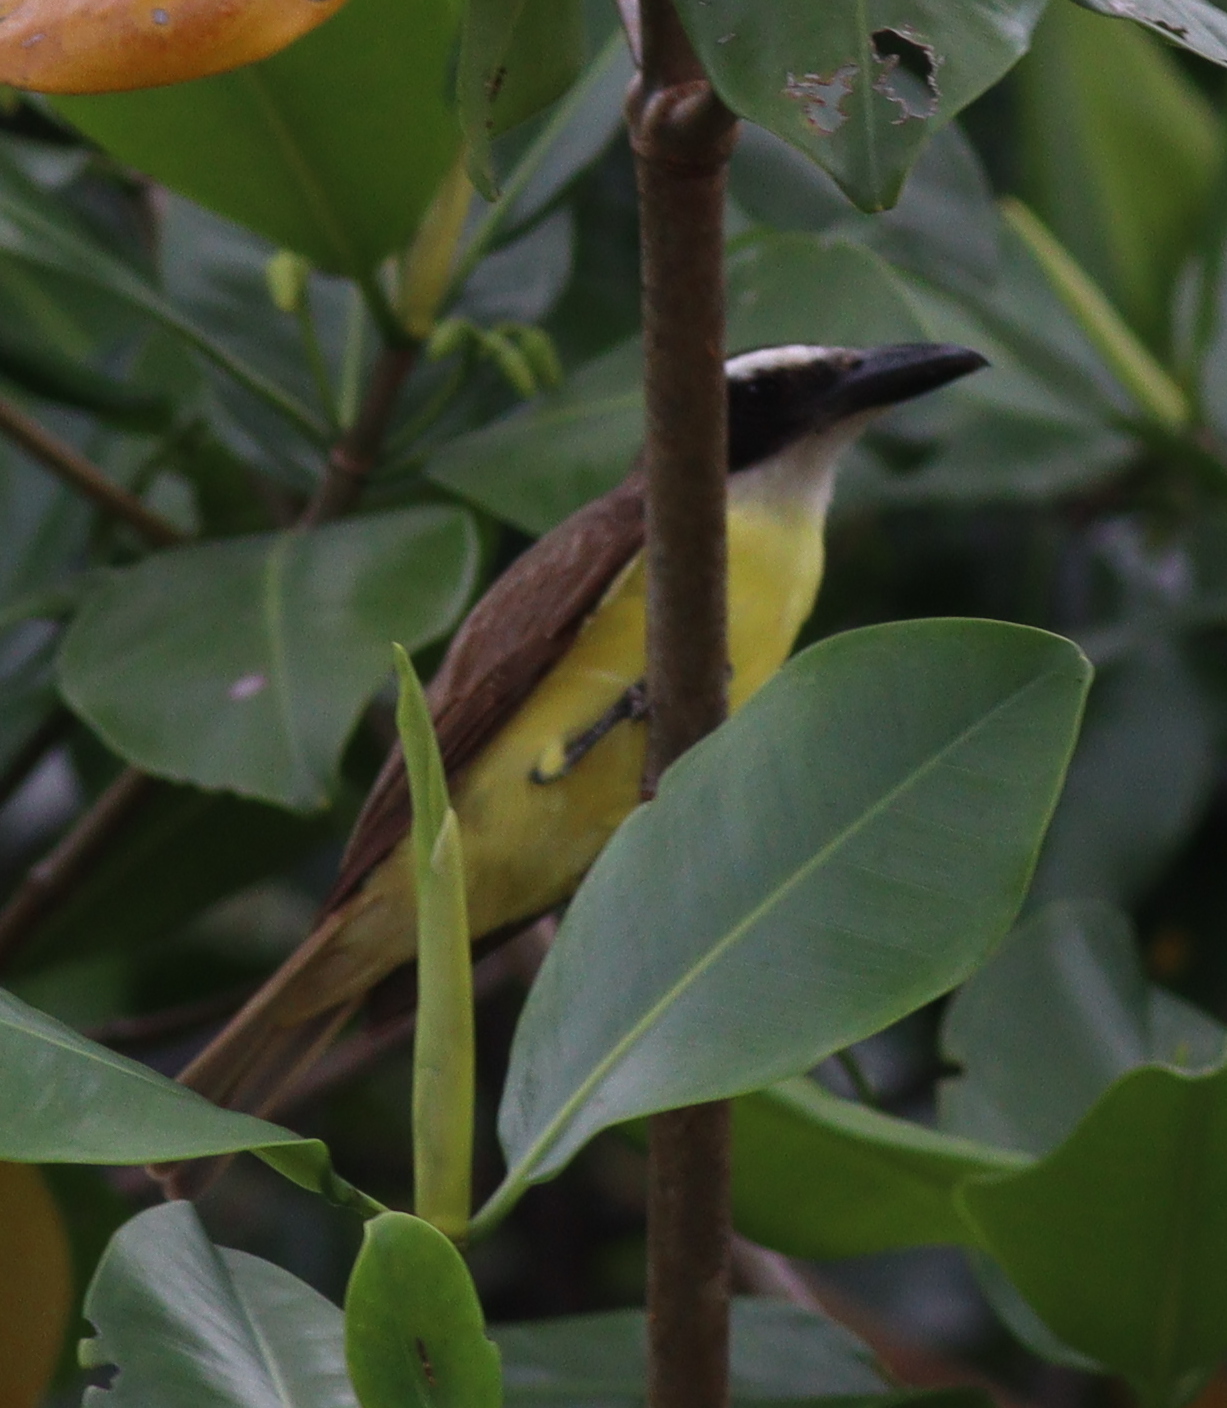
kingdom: Animalia
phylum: Chordata
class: Aves
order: Passeriformes
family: Tyrannidae
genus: Megarynchus
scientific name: Megarynchus pitangua
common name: Boat-billed flycatcher
